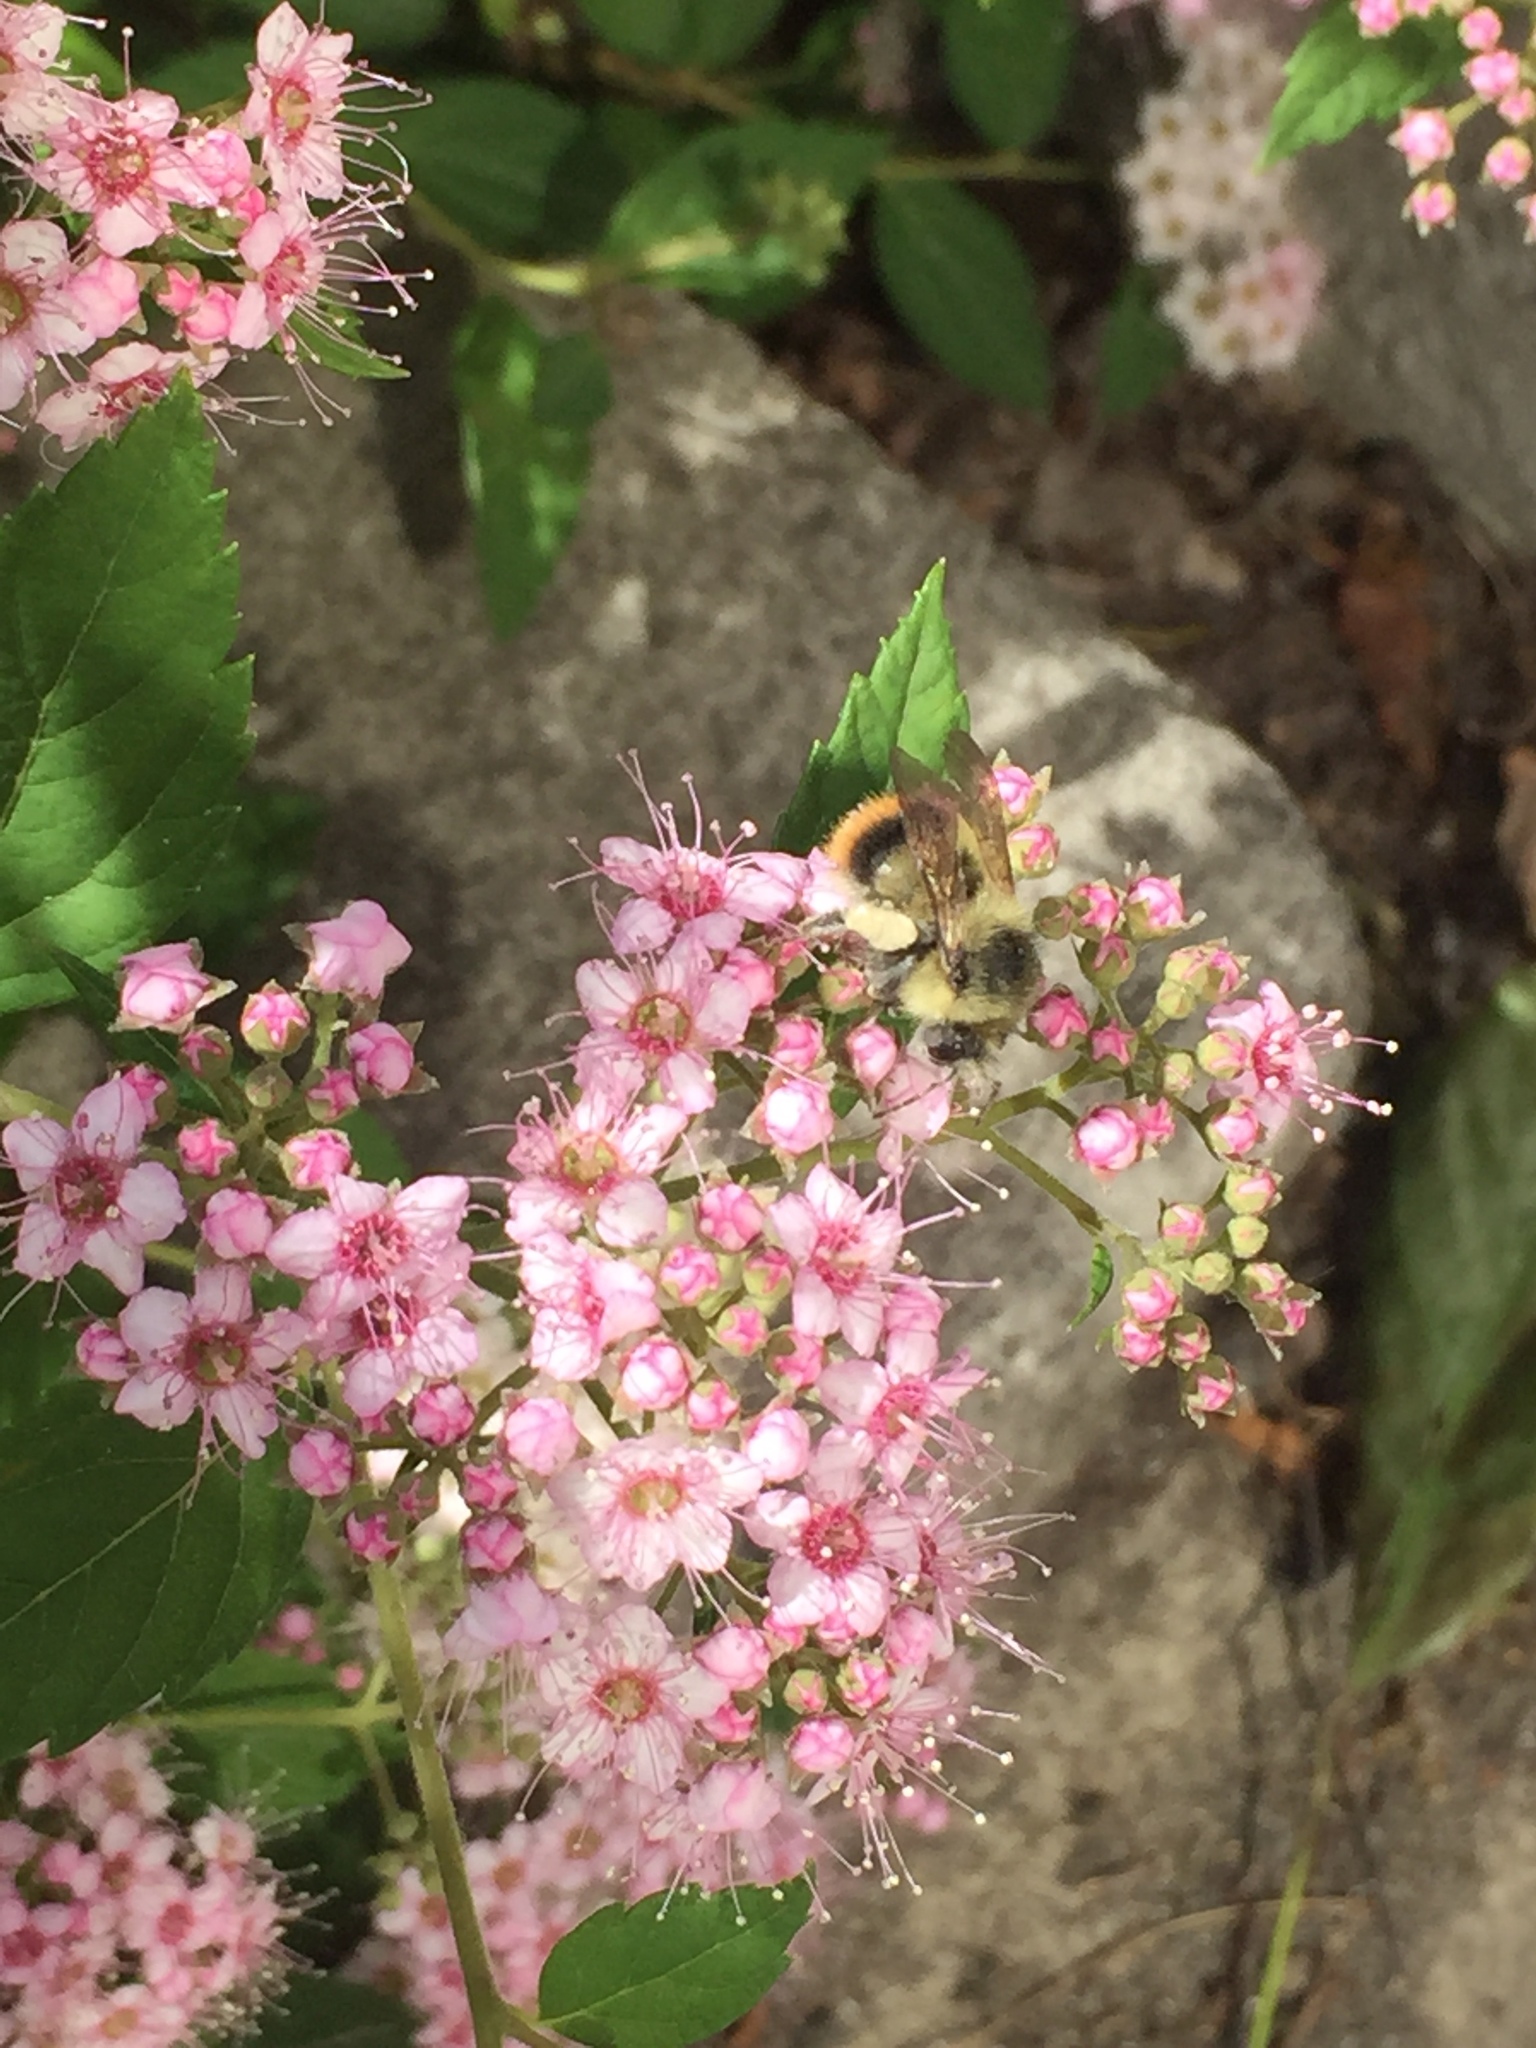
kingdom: Animalia
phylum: Arthropoda
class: Insecta
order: Hymenoptera
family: Apidae
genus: Bombus
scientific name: Bombus mixtus
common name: Fuzzy-horned bumble bee
